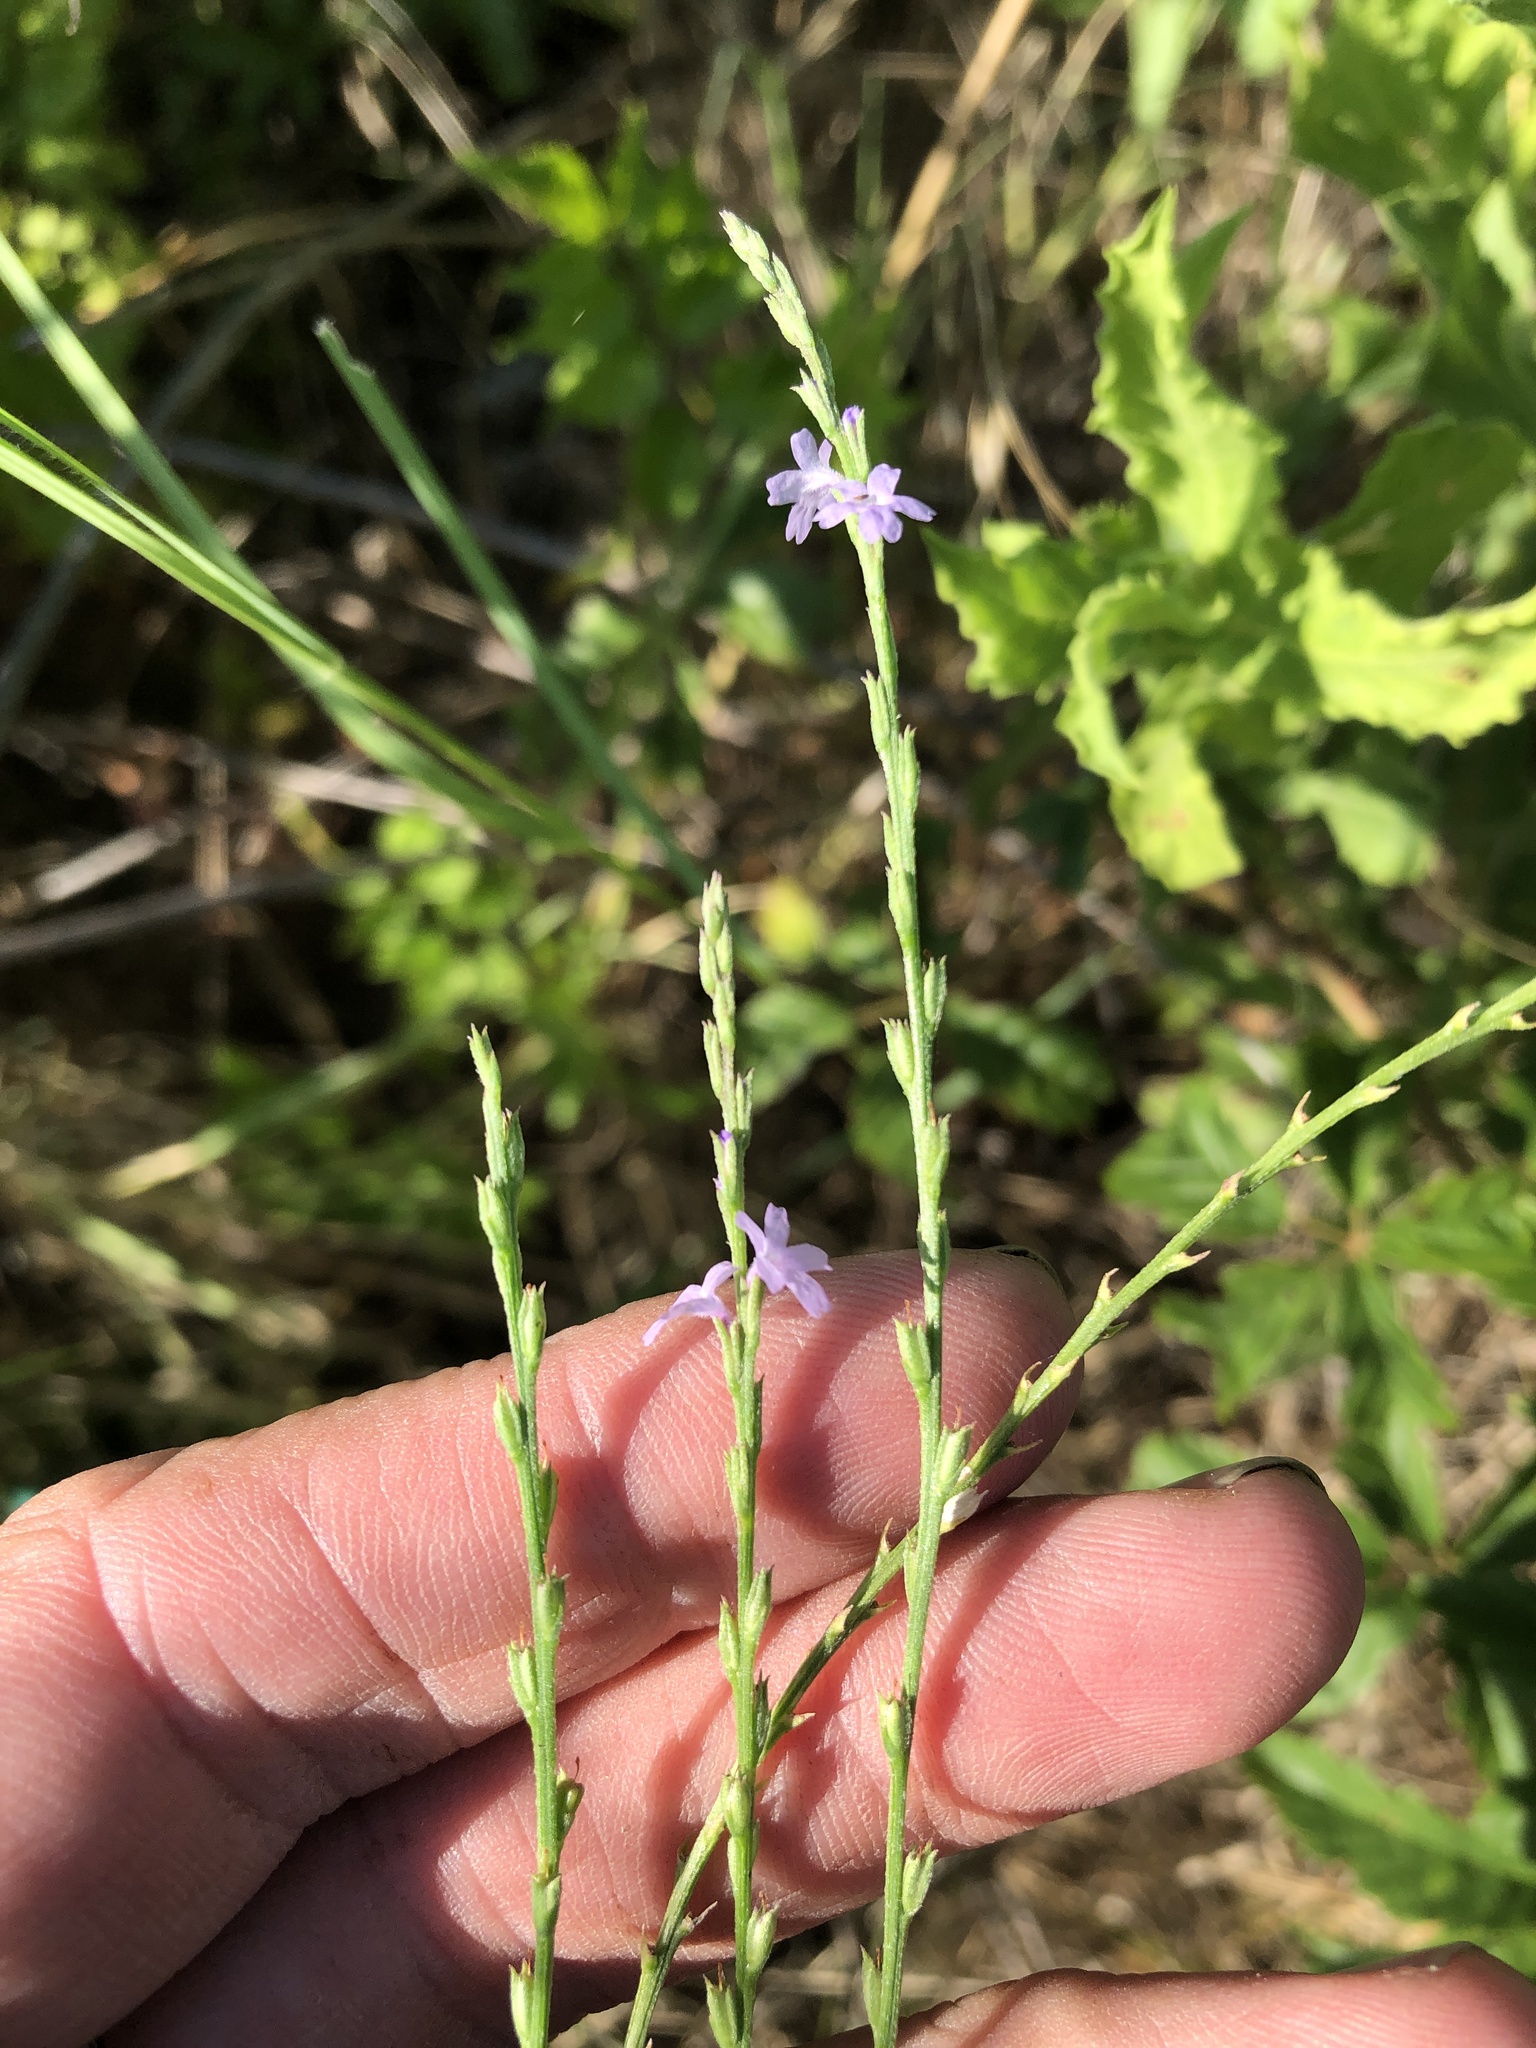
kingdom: Plantae
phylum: Tracheophyta
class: Magnoliopsida
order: Lamiales
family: Verbenaceae
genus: Verbena
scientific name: Verbena halei
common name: Texas vervain
